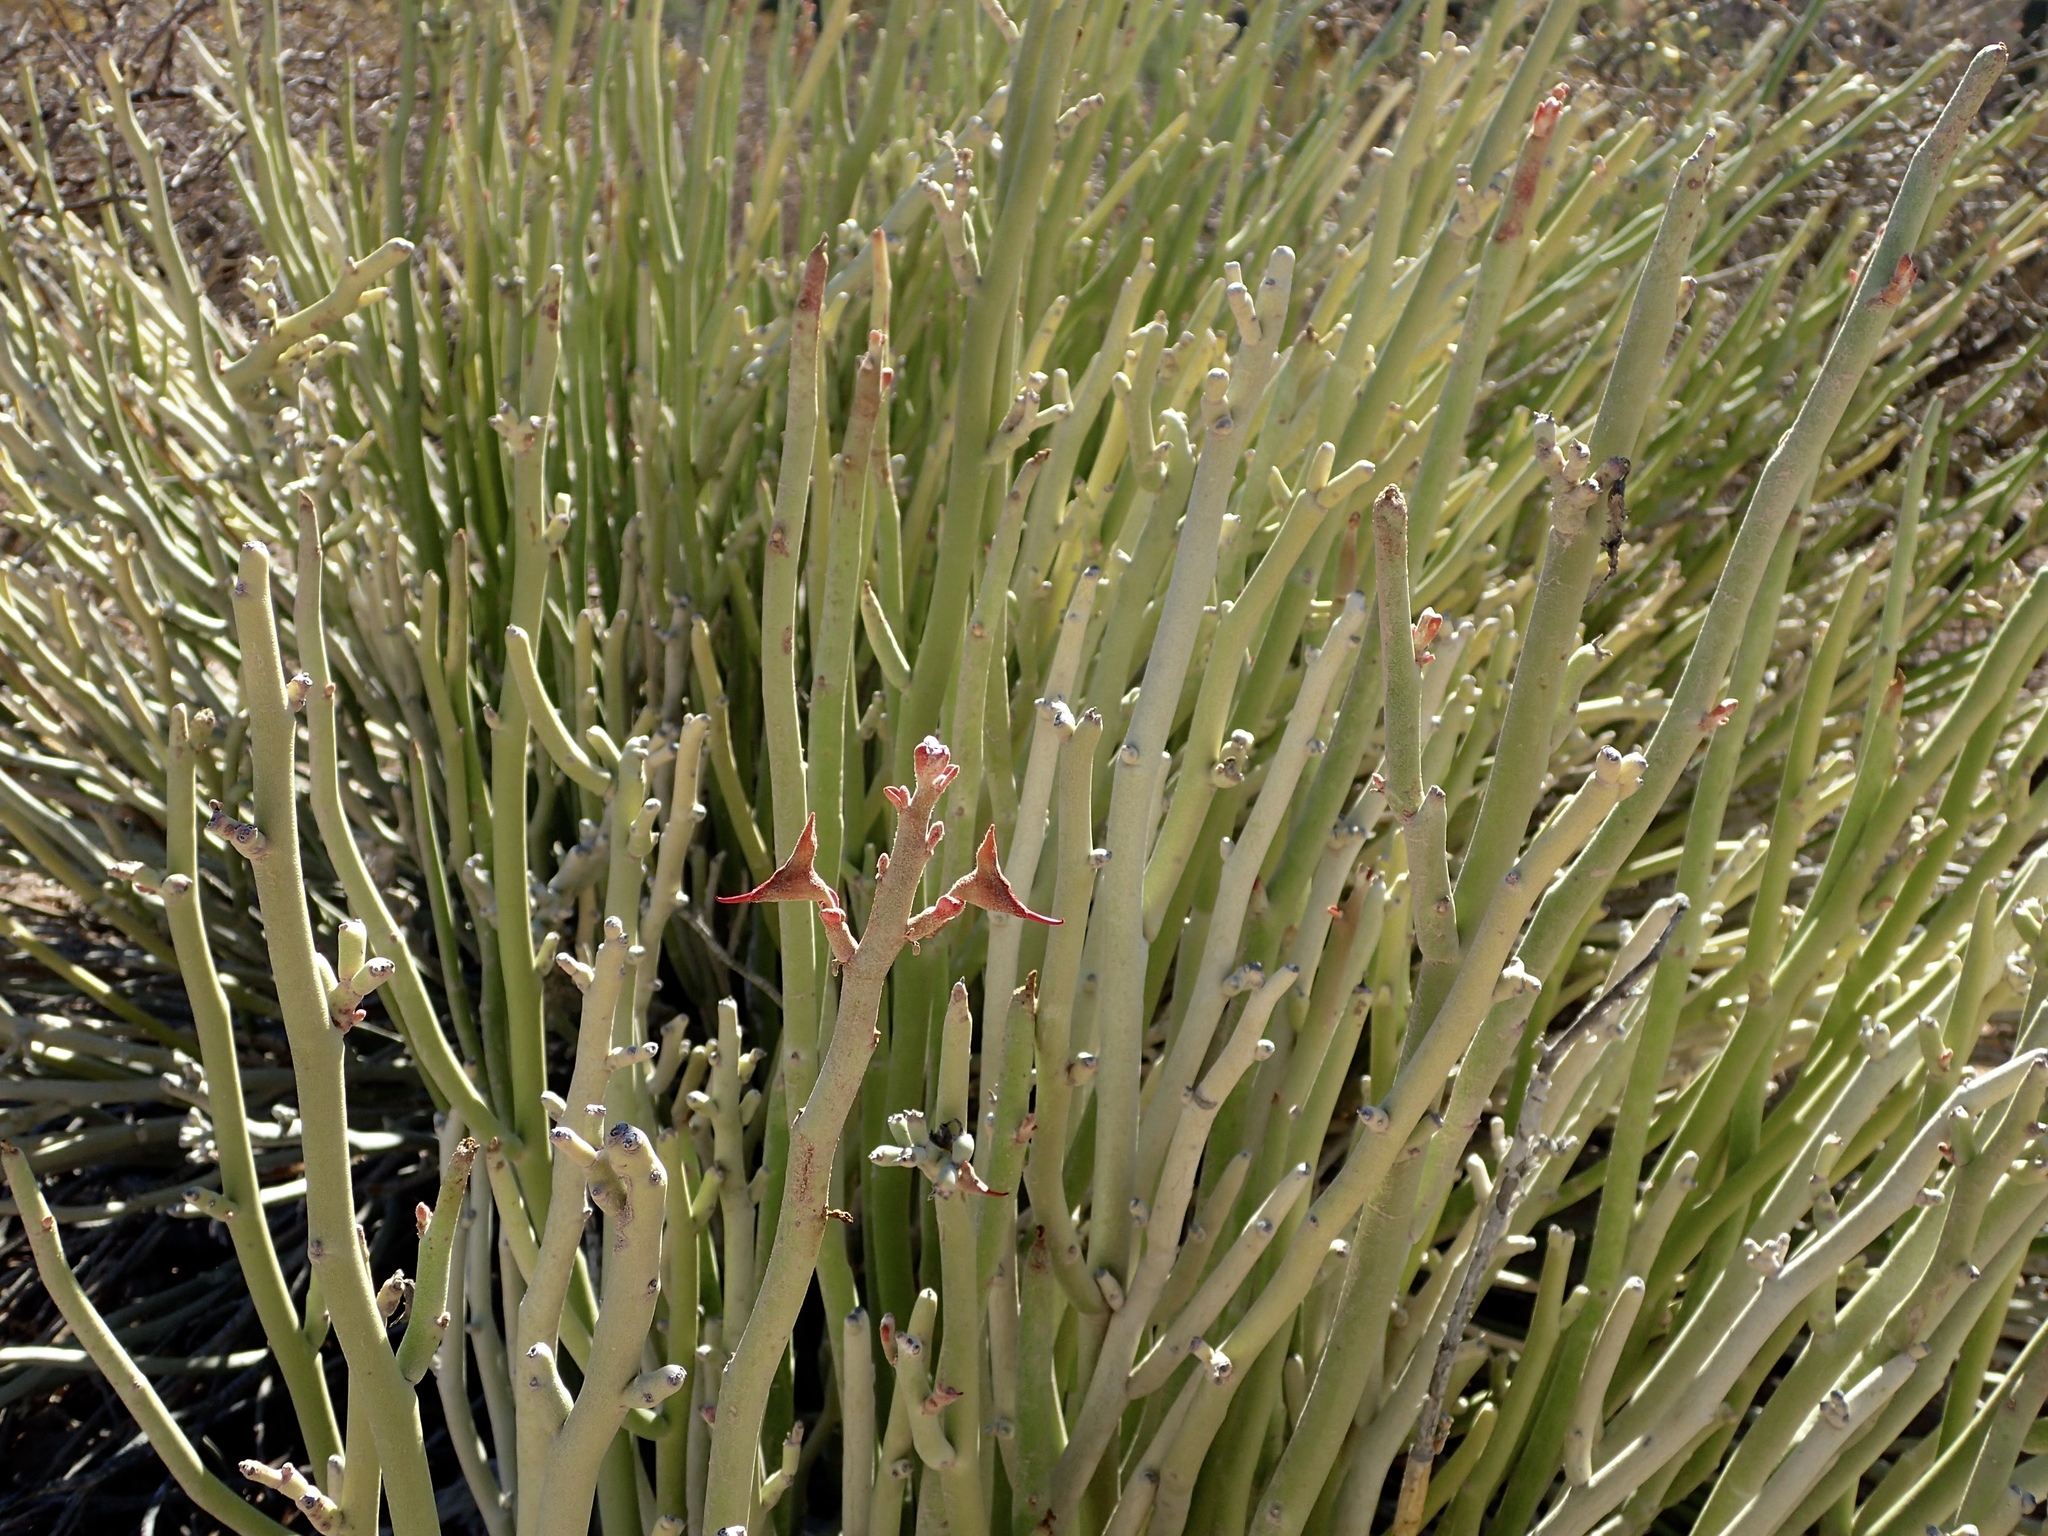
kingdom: Plantae
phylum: Tracheophyta
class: Magnoliopsida
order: Malpighiales
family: Euphorbiaceae
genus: Euphorbia
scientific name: Euphorbia lomelii
